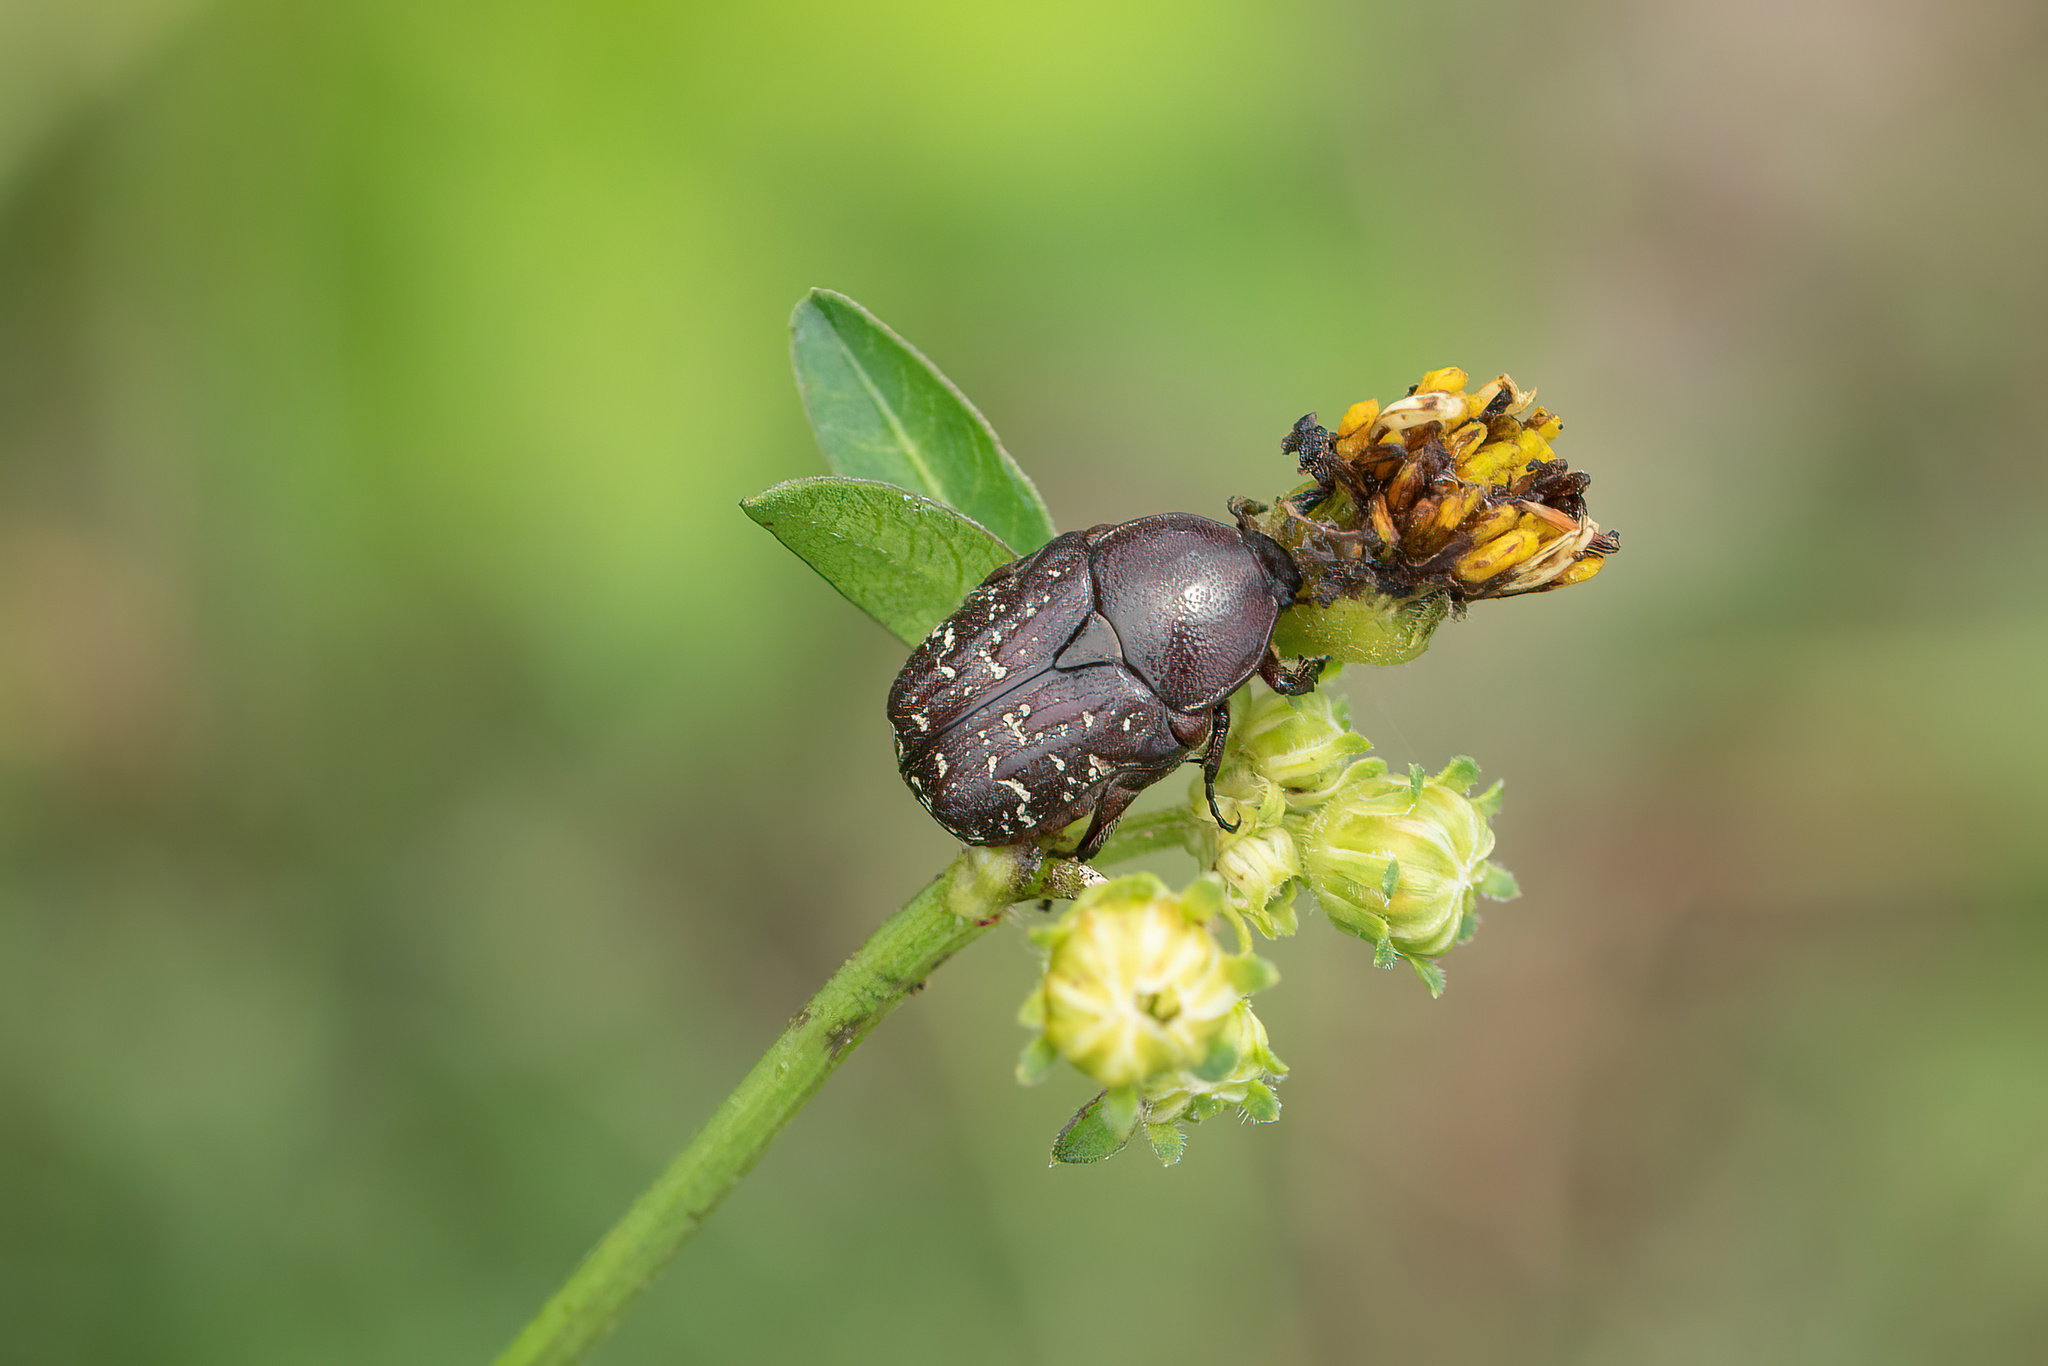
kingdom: Animalia
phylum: Arthropoda
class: Insecta
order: Coleoptera
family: Scarabaeidae
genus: Euphoria
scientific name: Euphoria sepulcralis
